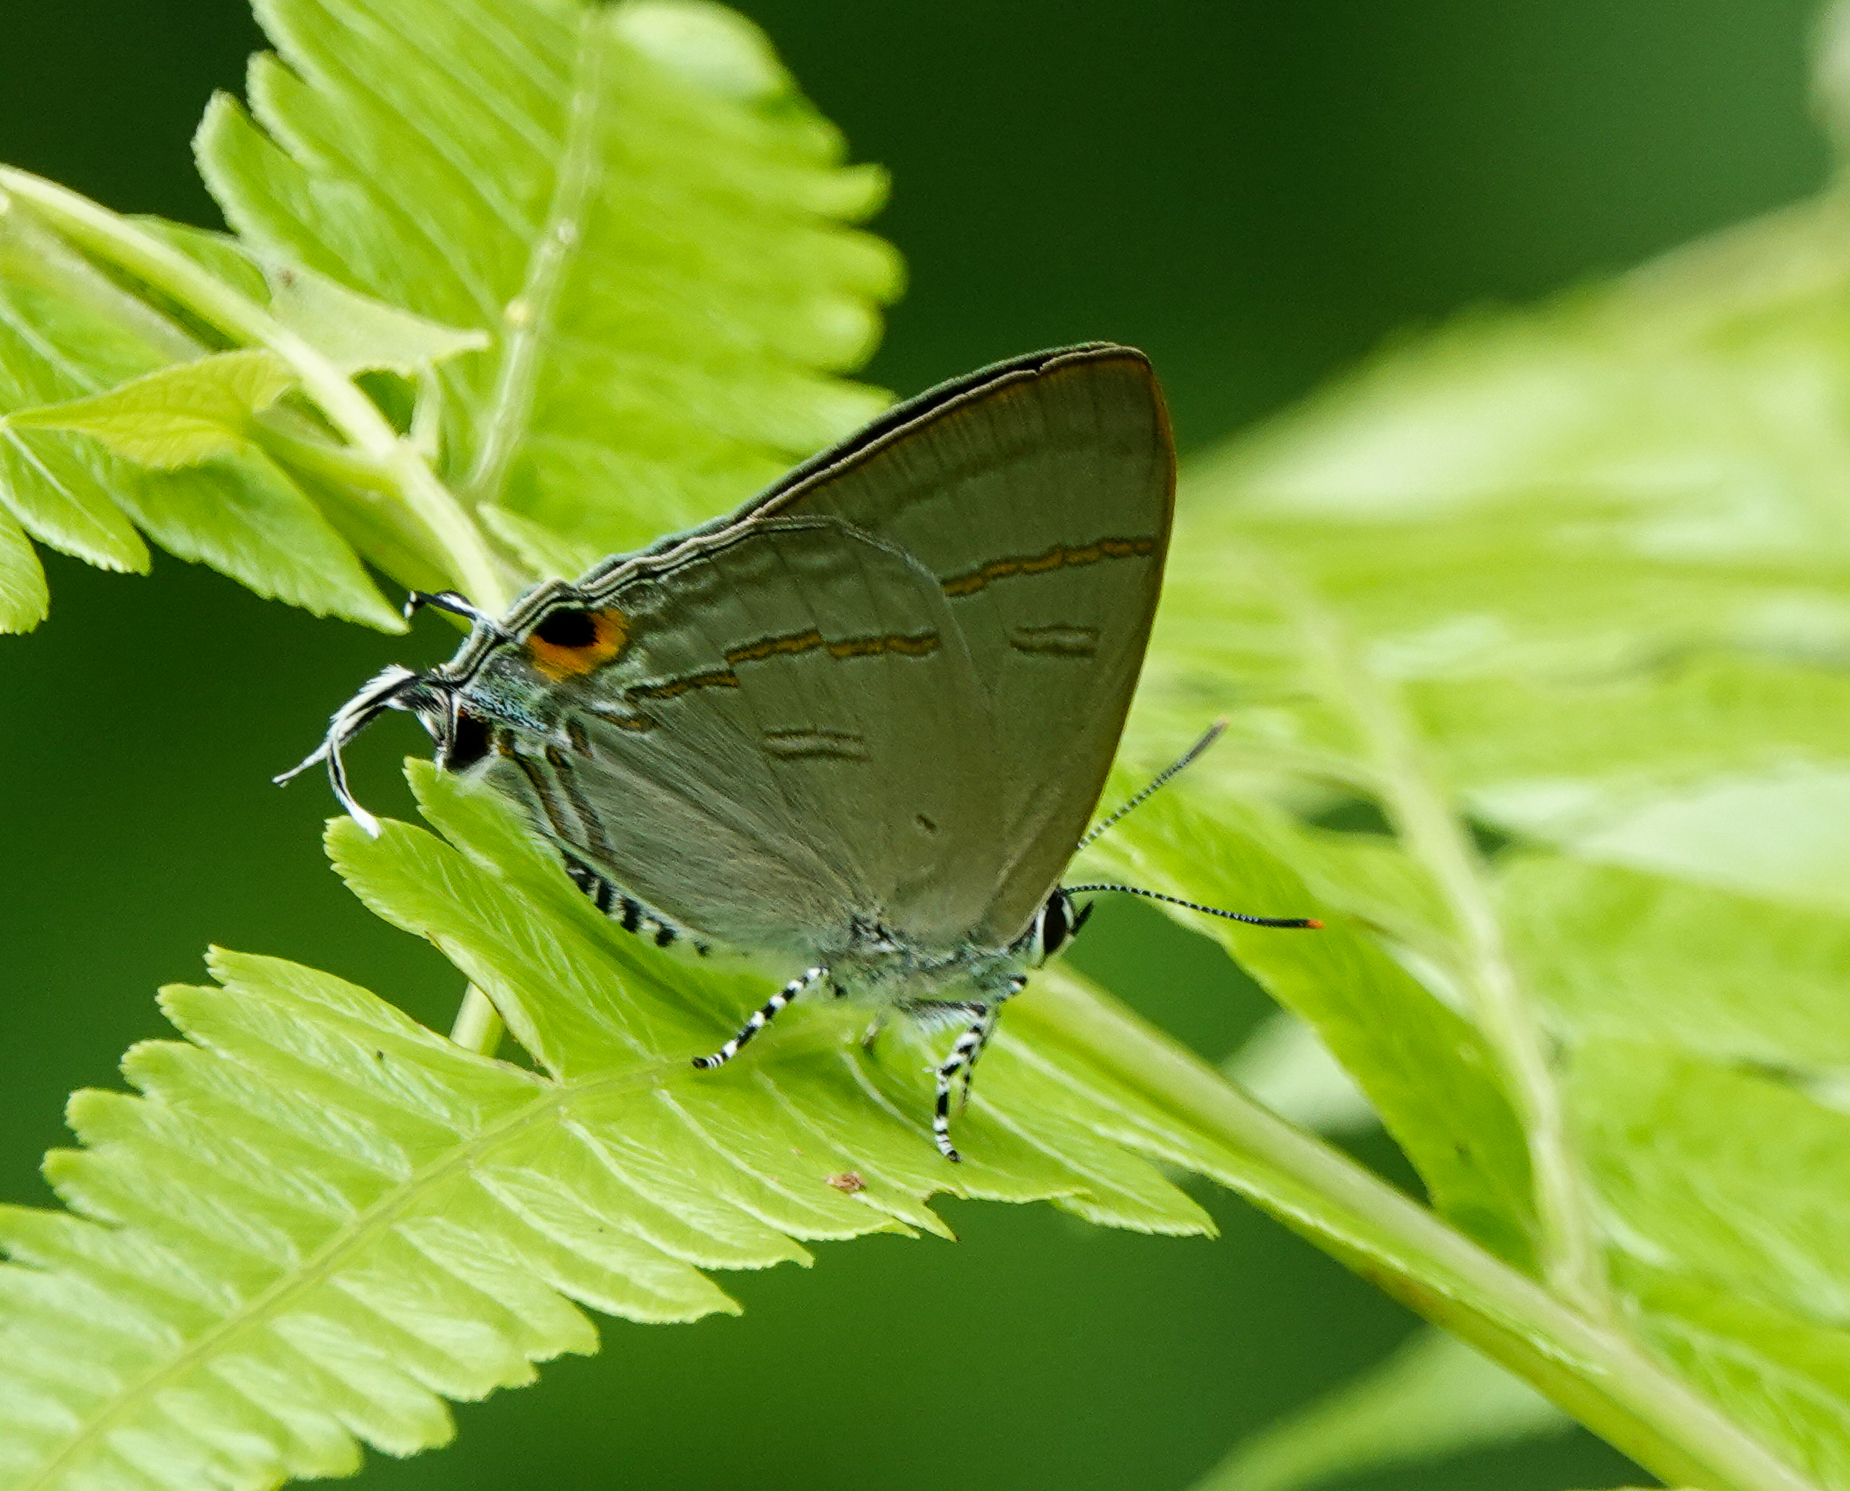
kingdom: Animalia
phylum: Arthropoda
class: Insecta
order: Lepidoptera
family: Lycaenidae
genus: Hypolycaena
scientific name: Hypolycaena erylus
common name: Common tit
